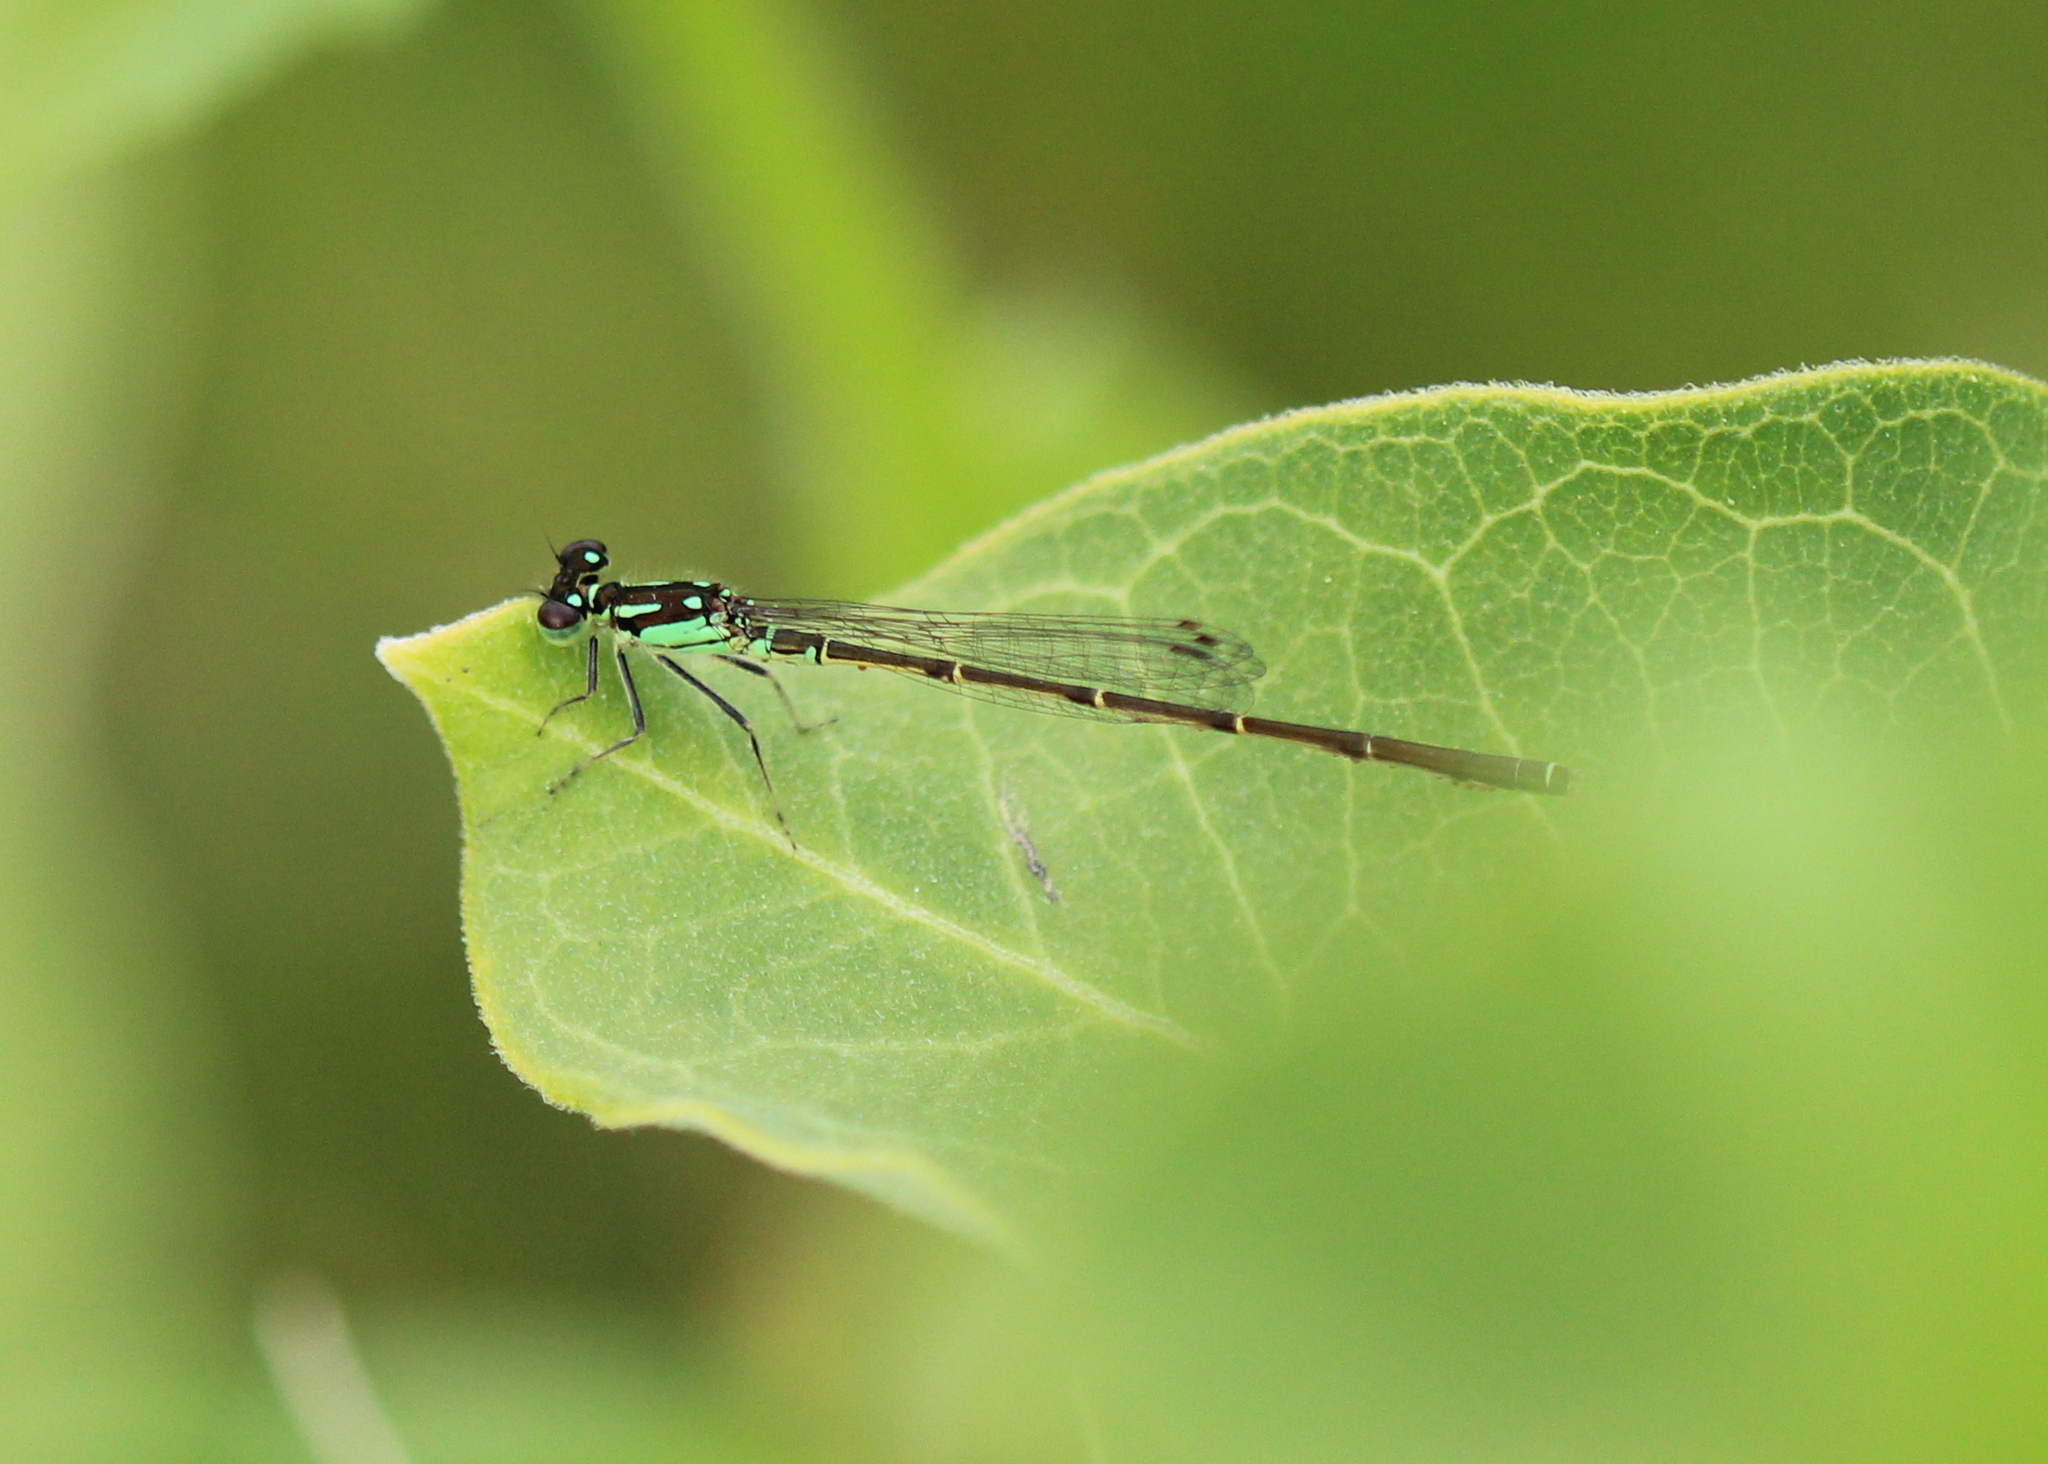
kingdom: Animalia
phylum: Arthropoda
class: Insecta
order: Odonata
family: Coenagrionidae
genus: Ischnura
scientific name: Ischnura posita
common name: Fragile forktail
